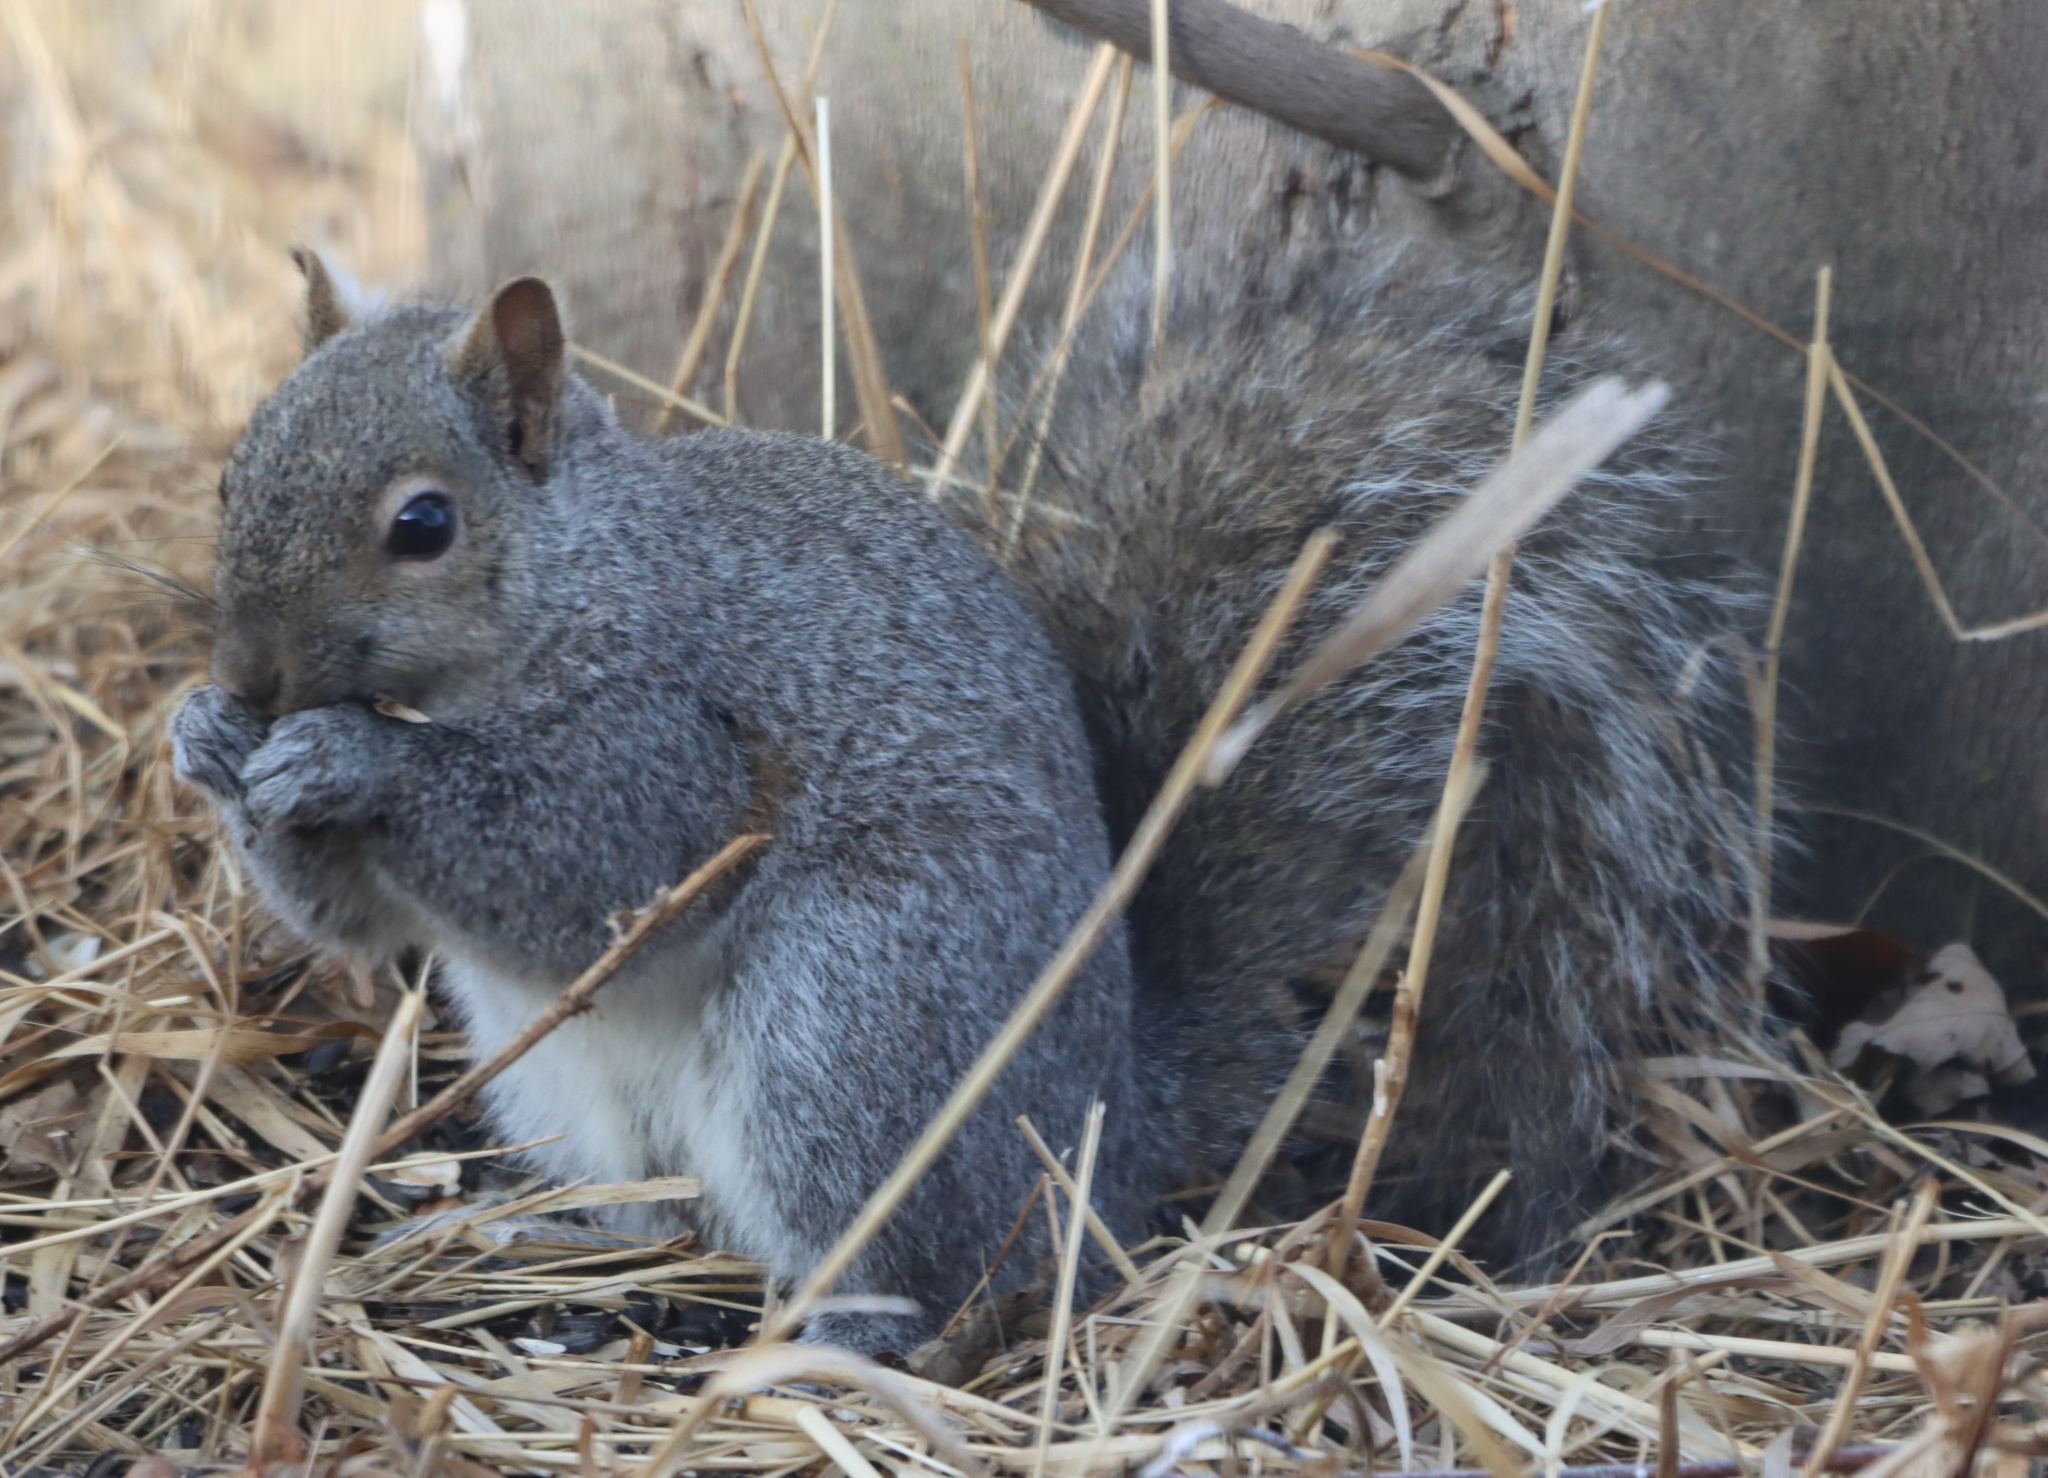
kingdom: Animalia
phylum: Chordata
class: Mammalia
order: Rodentia
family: Sciuridae
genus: Sciurus
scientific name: Sciurus carolinensis
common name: Eastern gray squirrel
